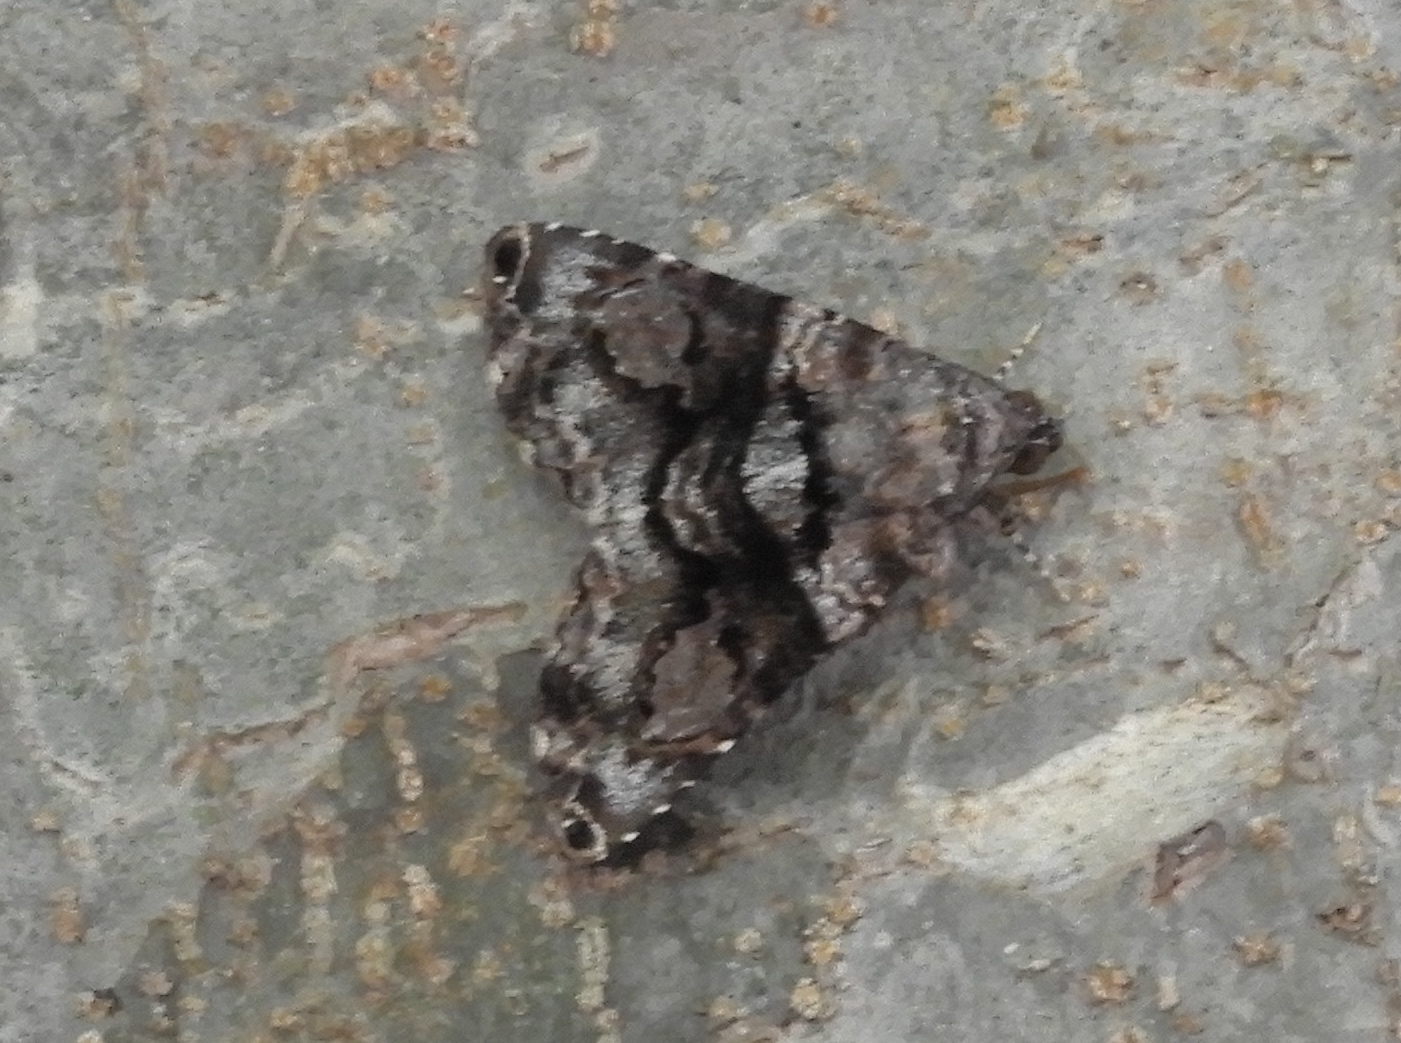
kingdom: Animalia
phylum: Arthropoda
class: Insecta
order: Lepidoptera
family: Erebidae
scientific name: Erebidae
